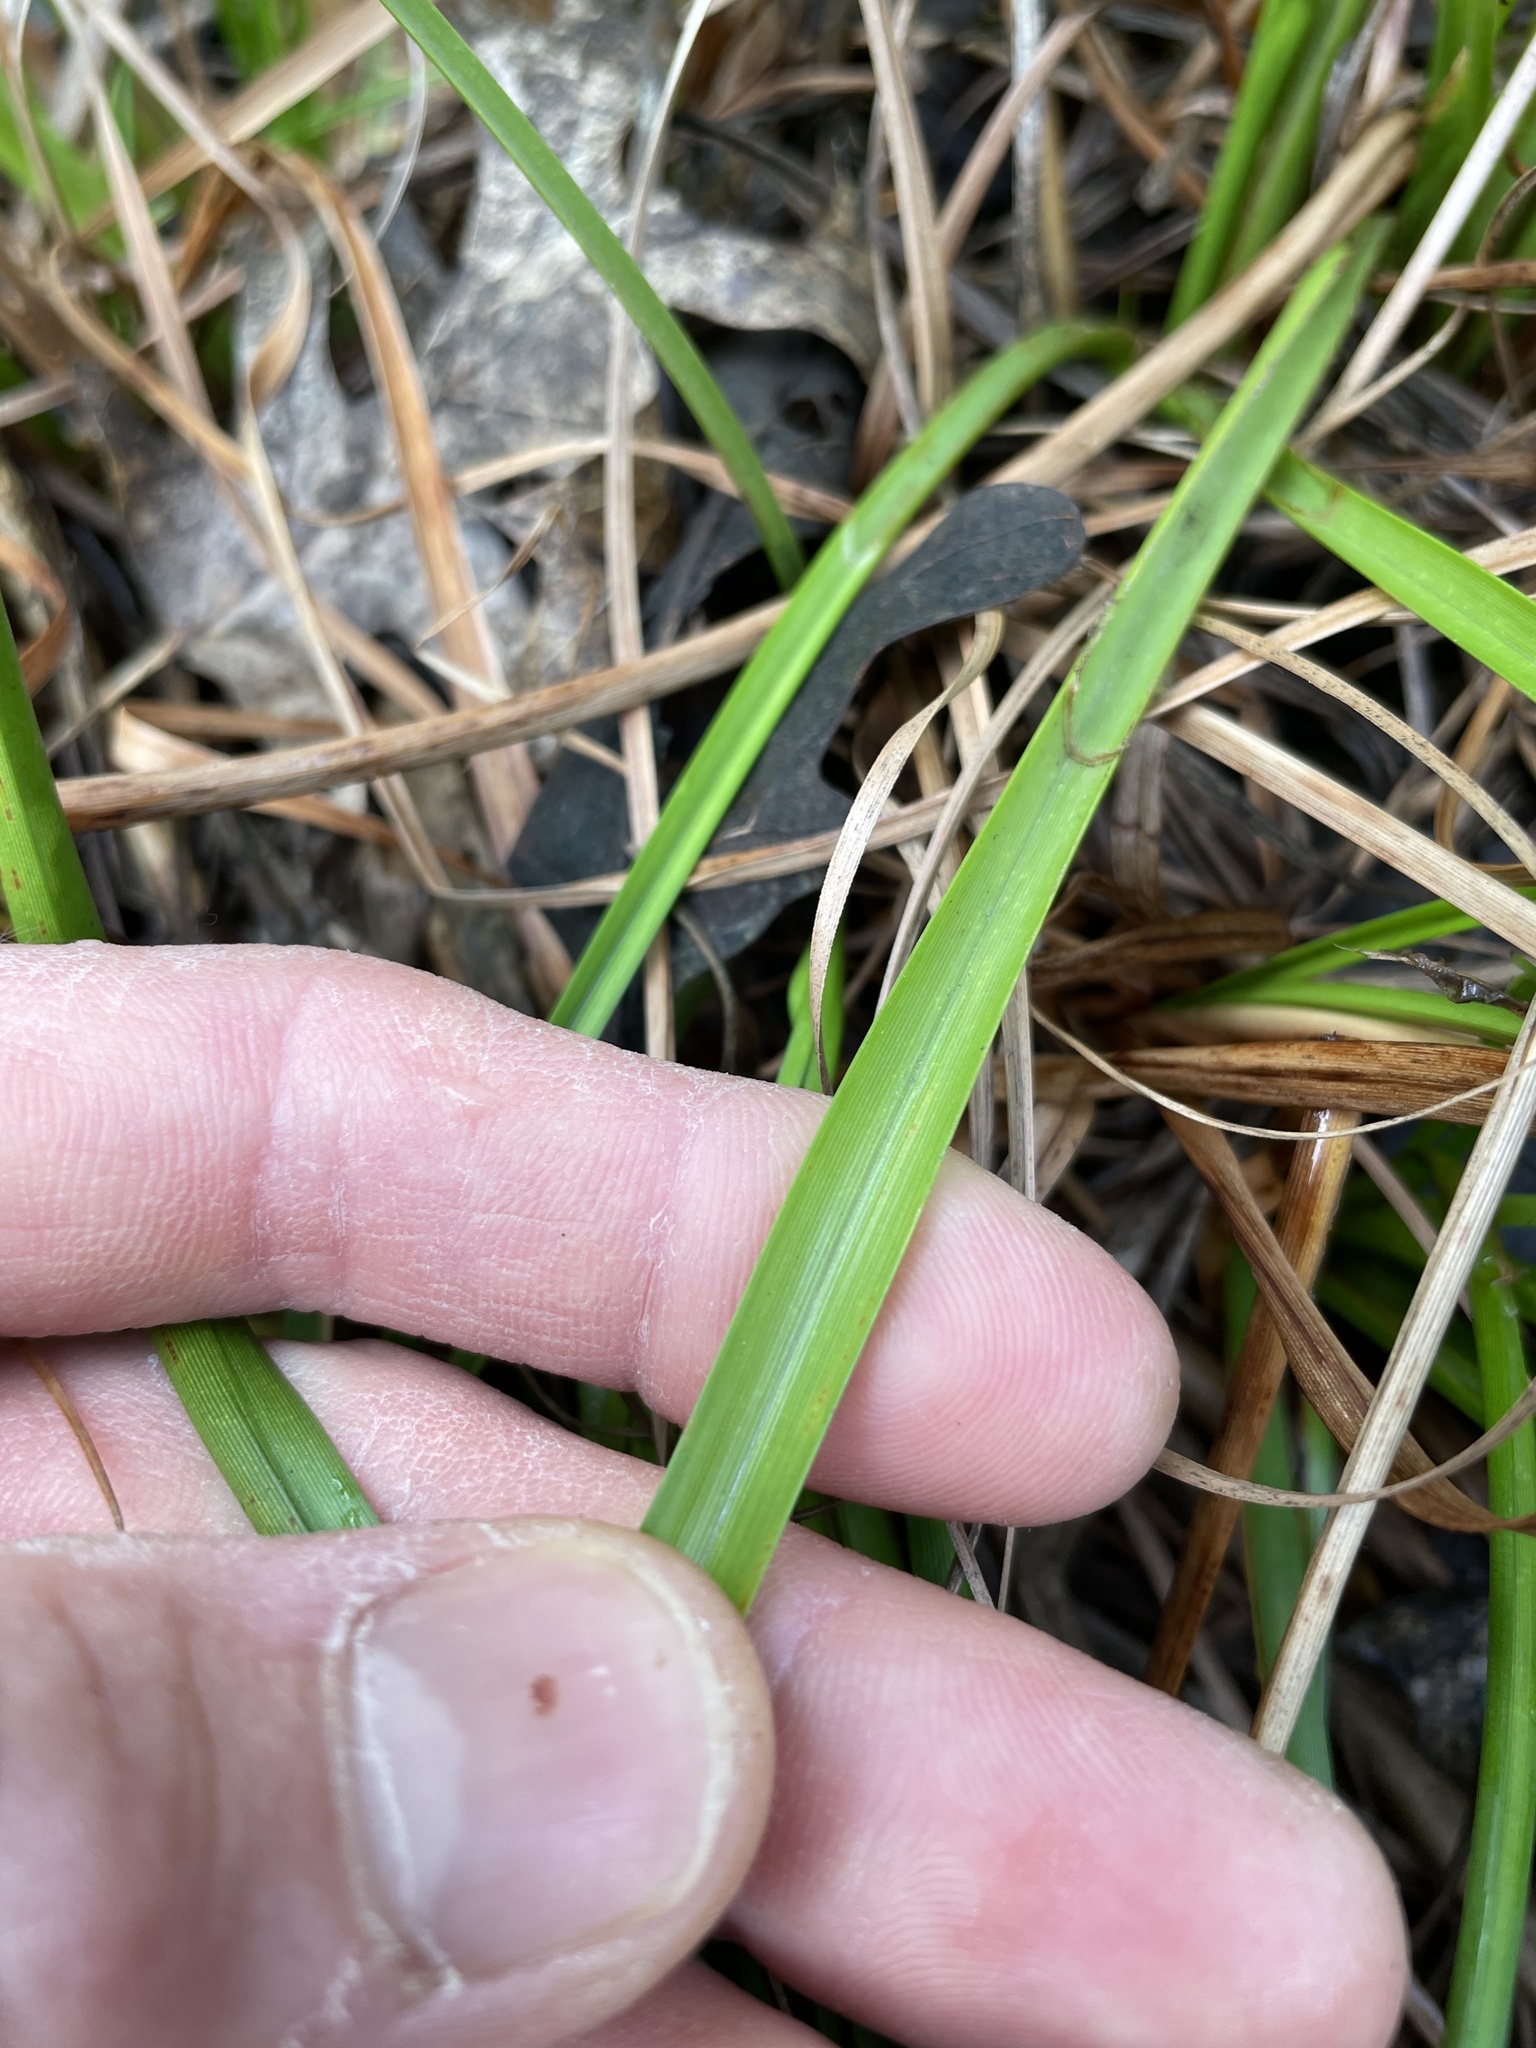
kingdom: Plantae
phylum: Tracheophyta
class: Liliopsida
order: Poales
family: Cyperaceae
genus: Scirpus
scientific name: Scirpus cyperinus
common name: Black-sheathed bulrush
